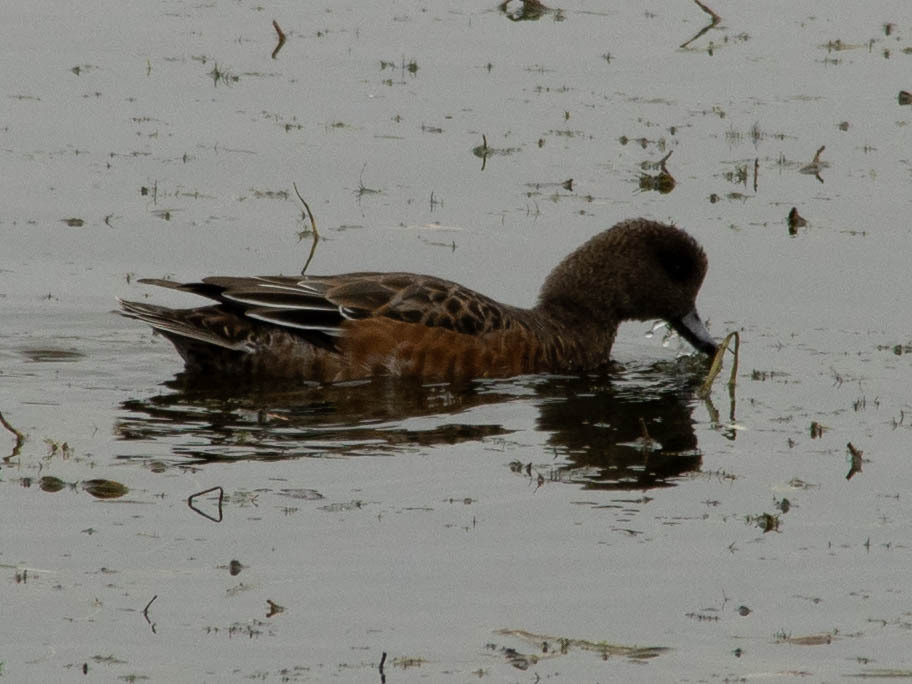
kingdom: Animalia
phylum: Chordata
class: Aves
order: Anseriformes
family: Anatidae
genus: Mareca
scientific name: Mareca americana
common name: American wigeon
